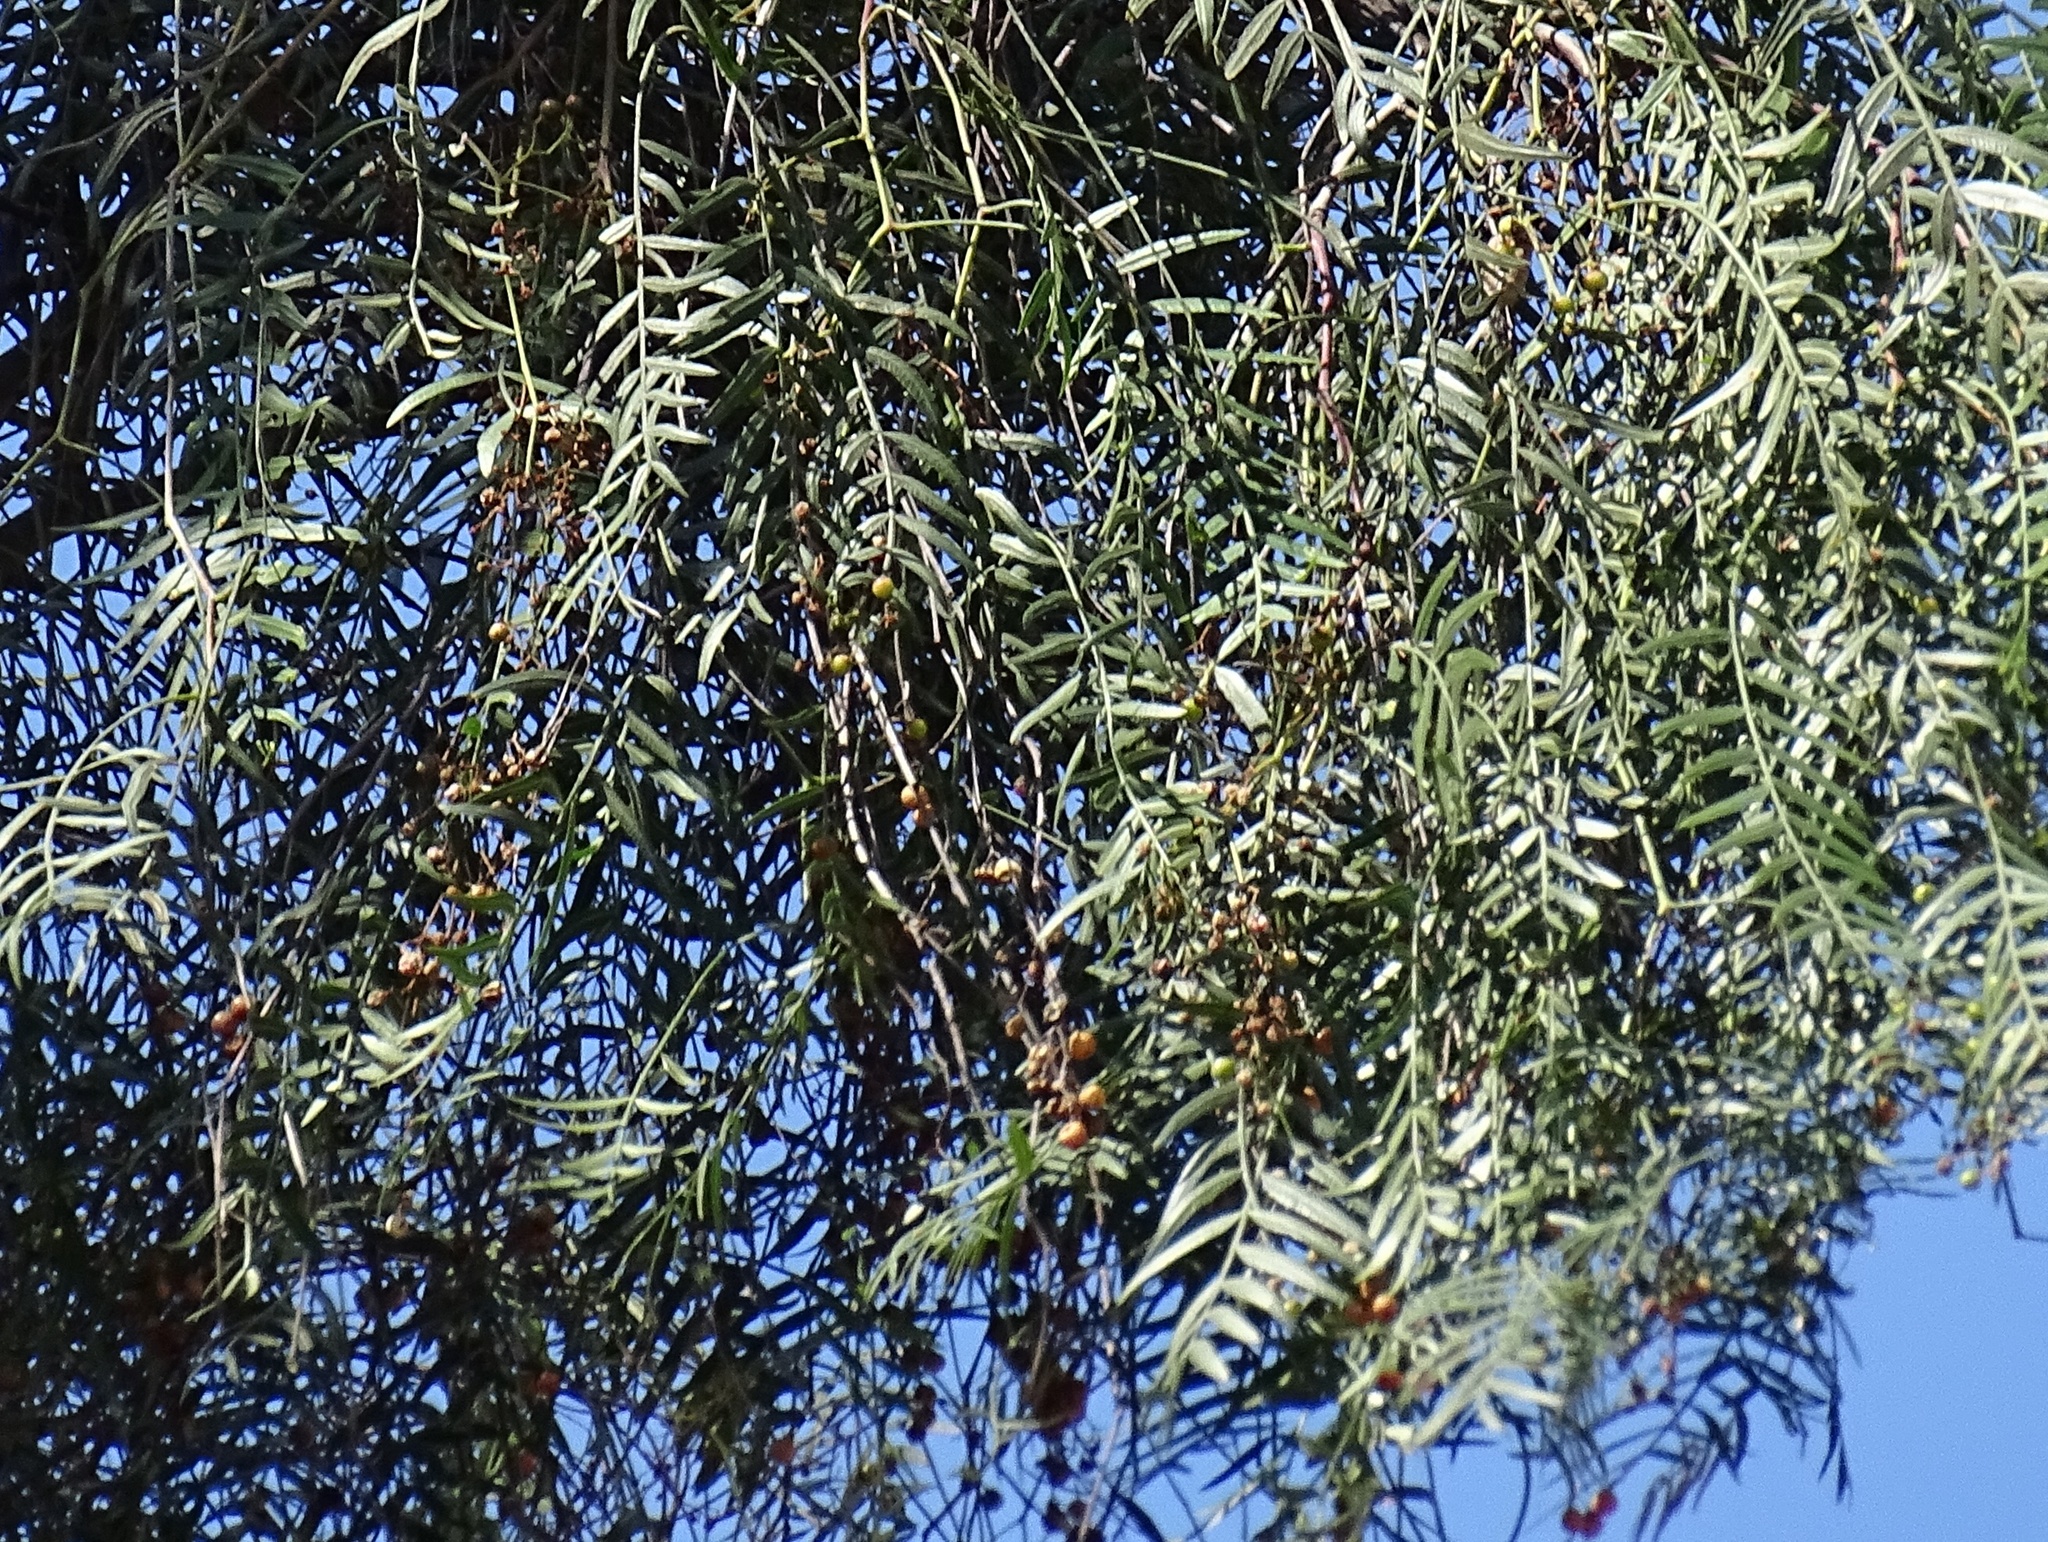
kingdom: Plantae
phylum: Tracheophyta
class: Magnoliopsida
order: Sapindales
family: Anacardiaceae
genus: Schinus
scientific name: Schinus molle
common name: Peruvian peppertree
